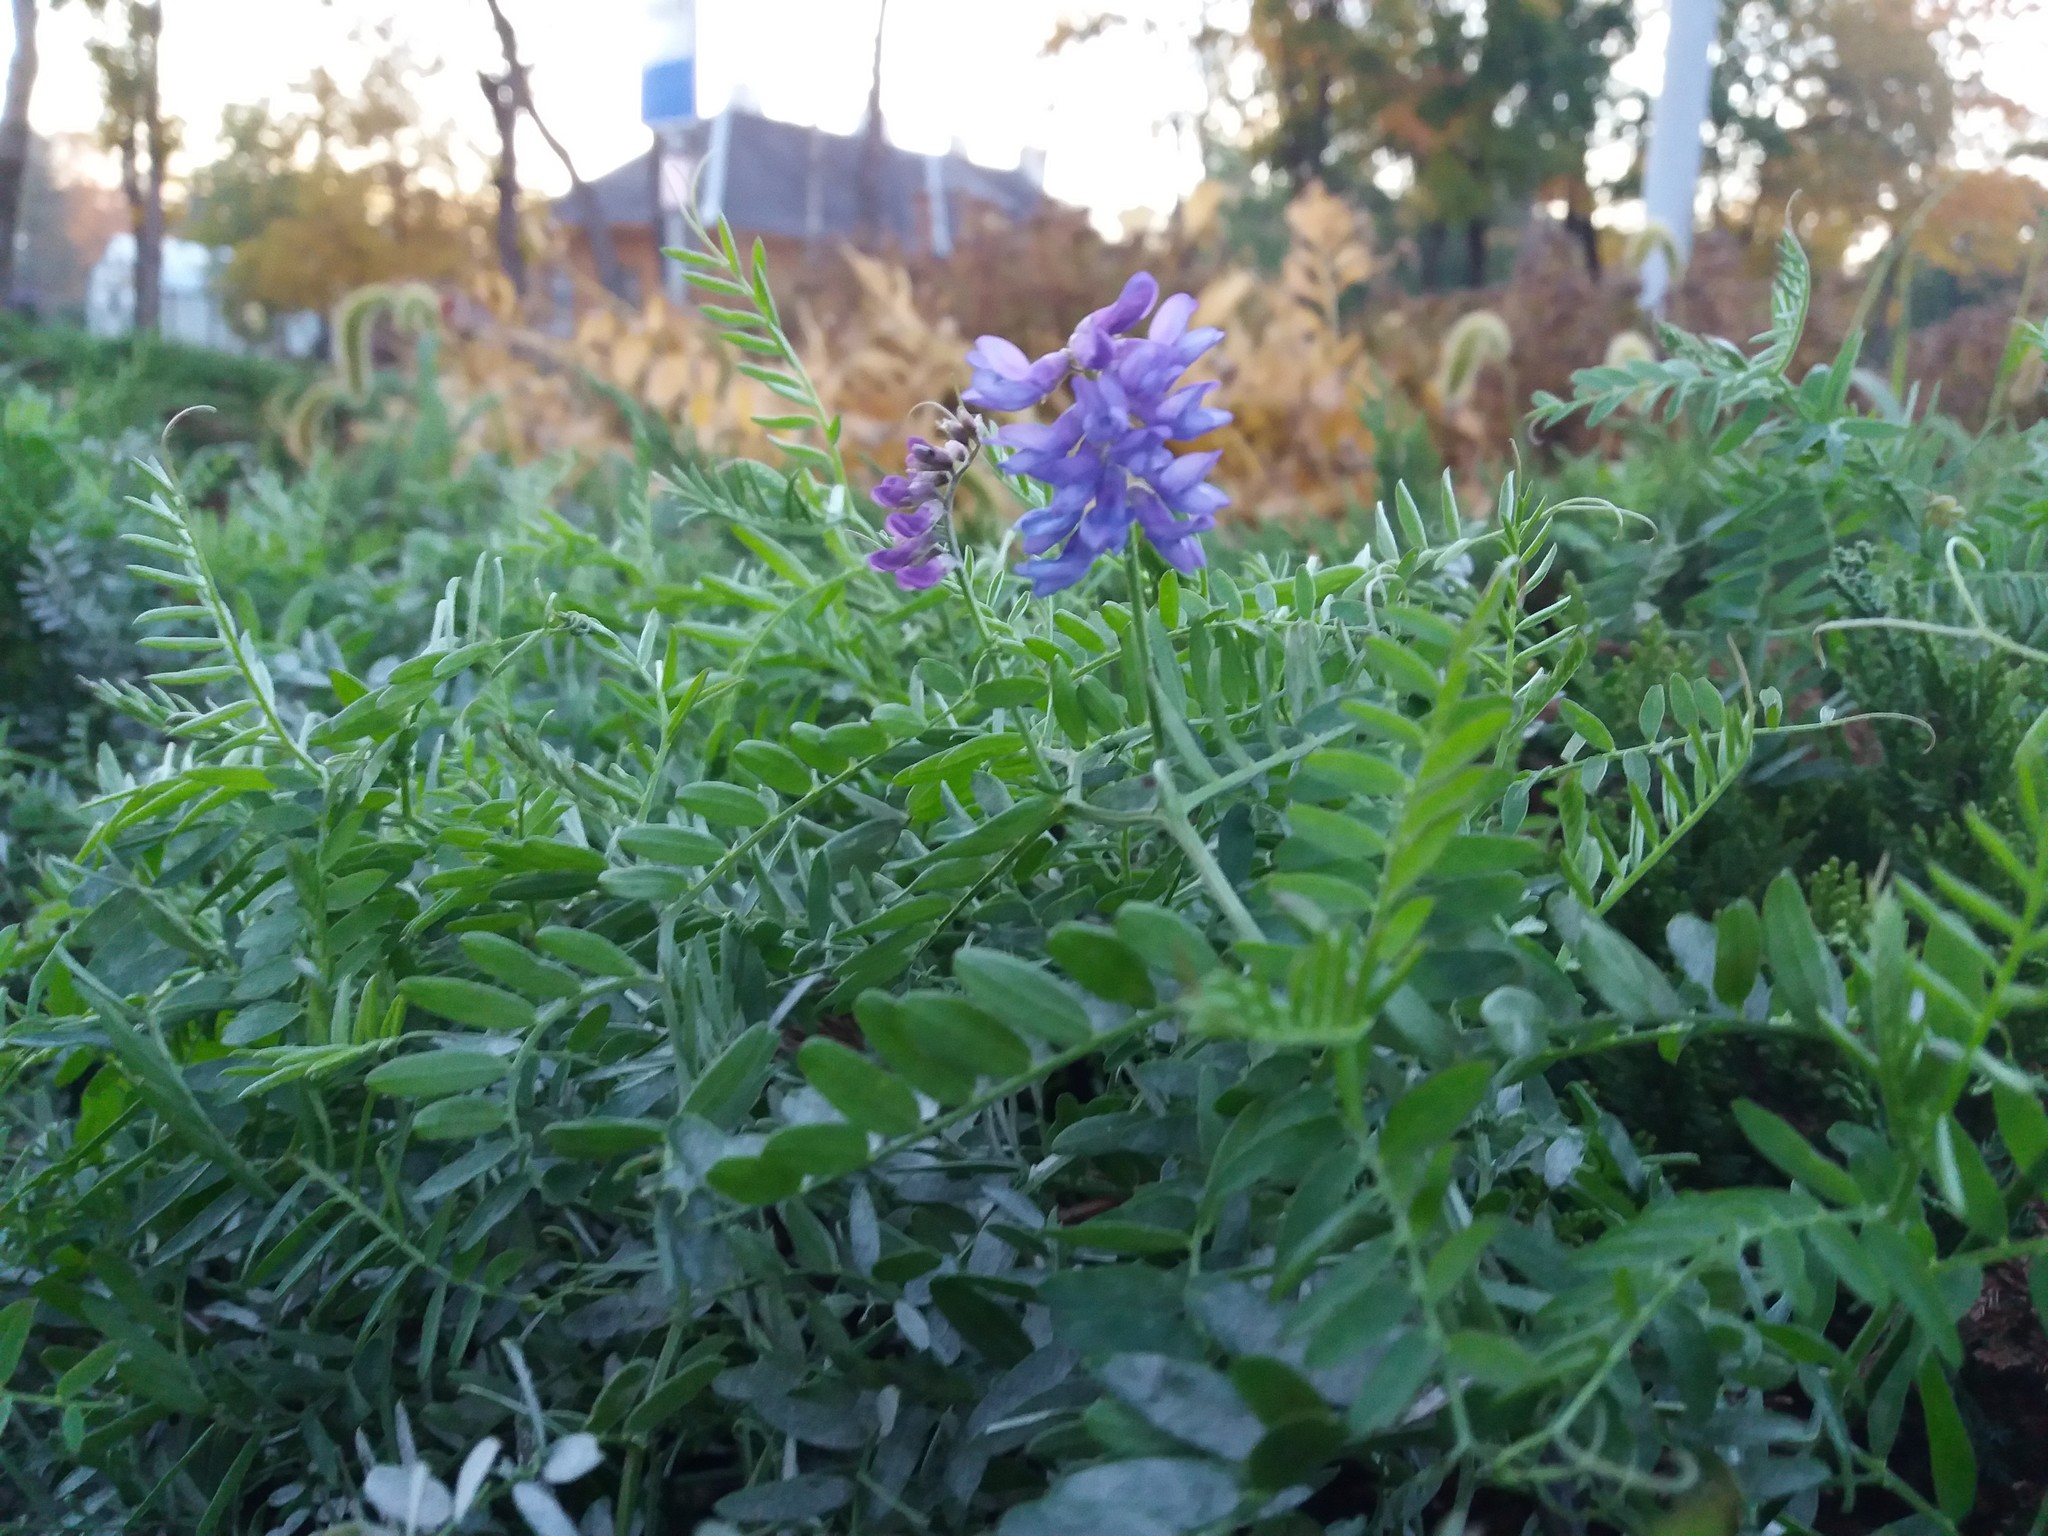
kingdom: Plantae
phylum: Tracheophyta
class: Magnoliopsida
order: Fabales
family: Fabaceae
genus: Vicia
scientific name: Vicia cracca
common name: Bird vetch
